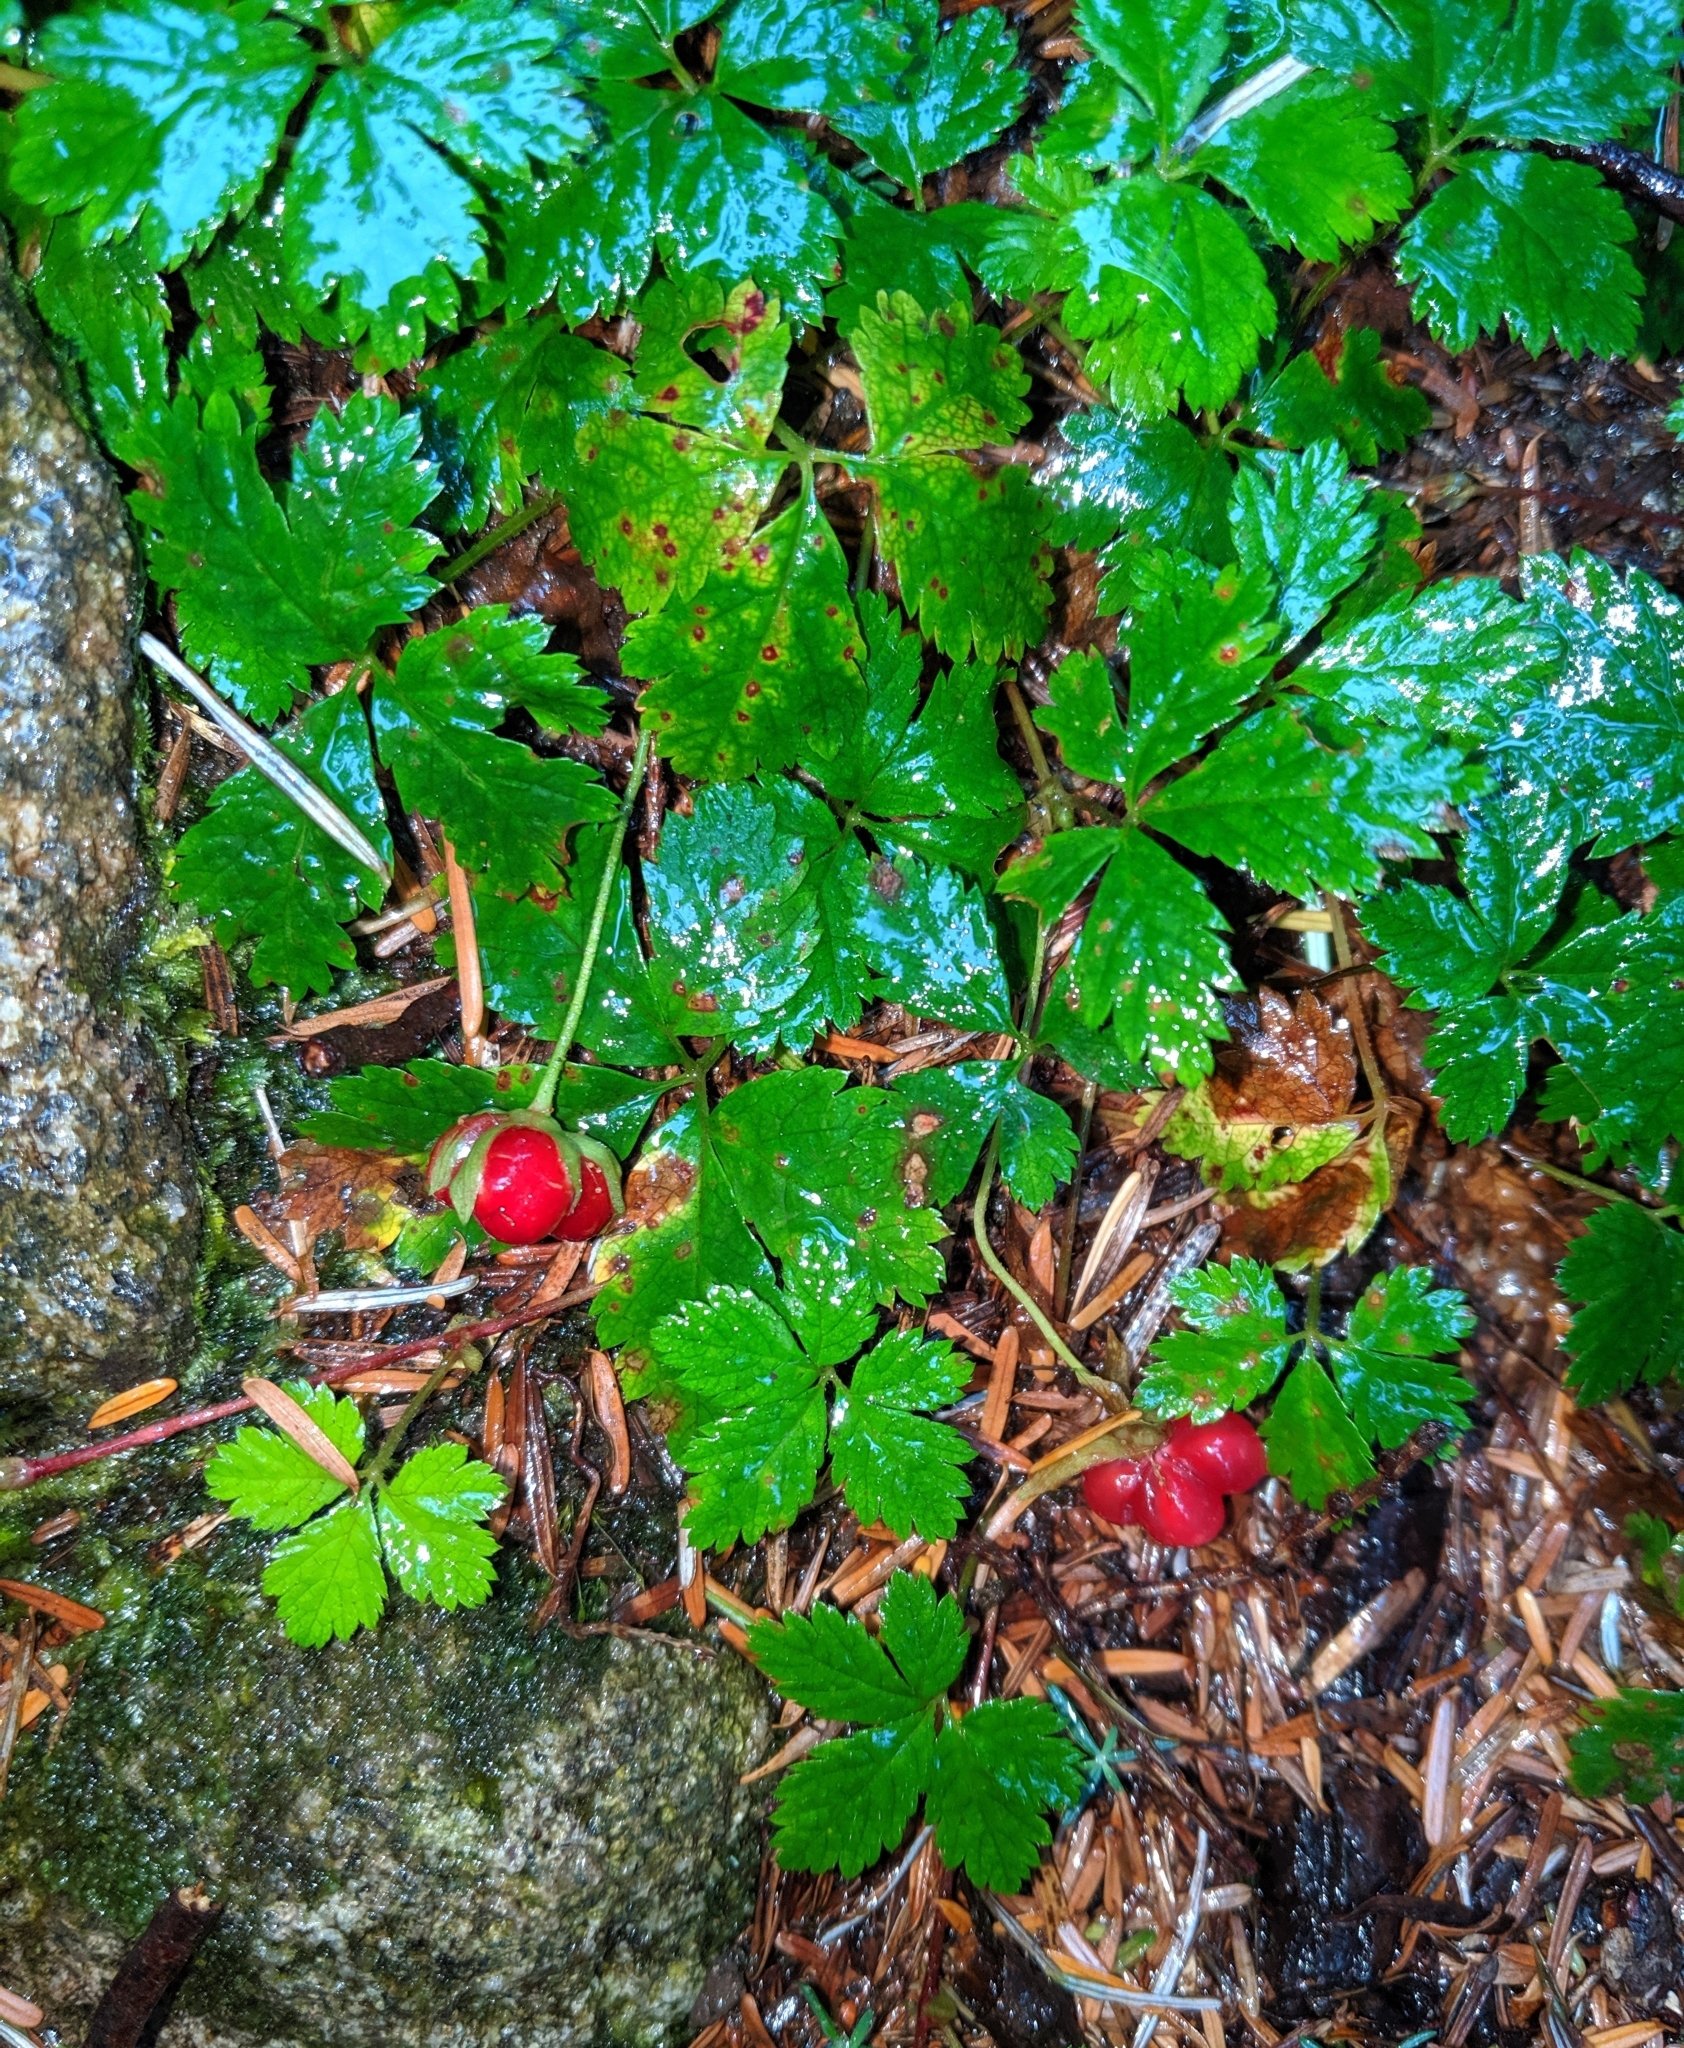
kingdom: Plantae
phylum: Tracheophyta
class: Magnoliopsida
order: Rosales
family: Rosaceae
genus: Rubus
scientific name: Rubus pedatus
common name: Creeping raspberry
